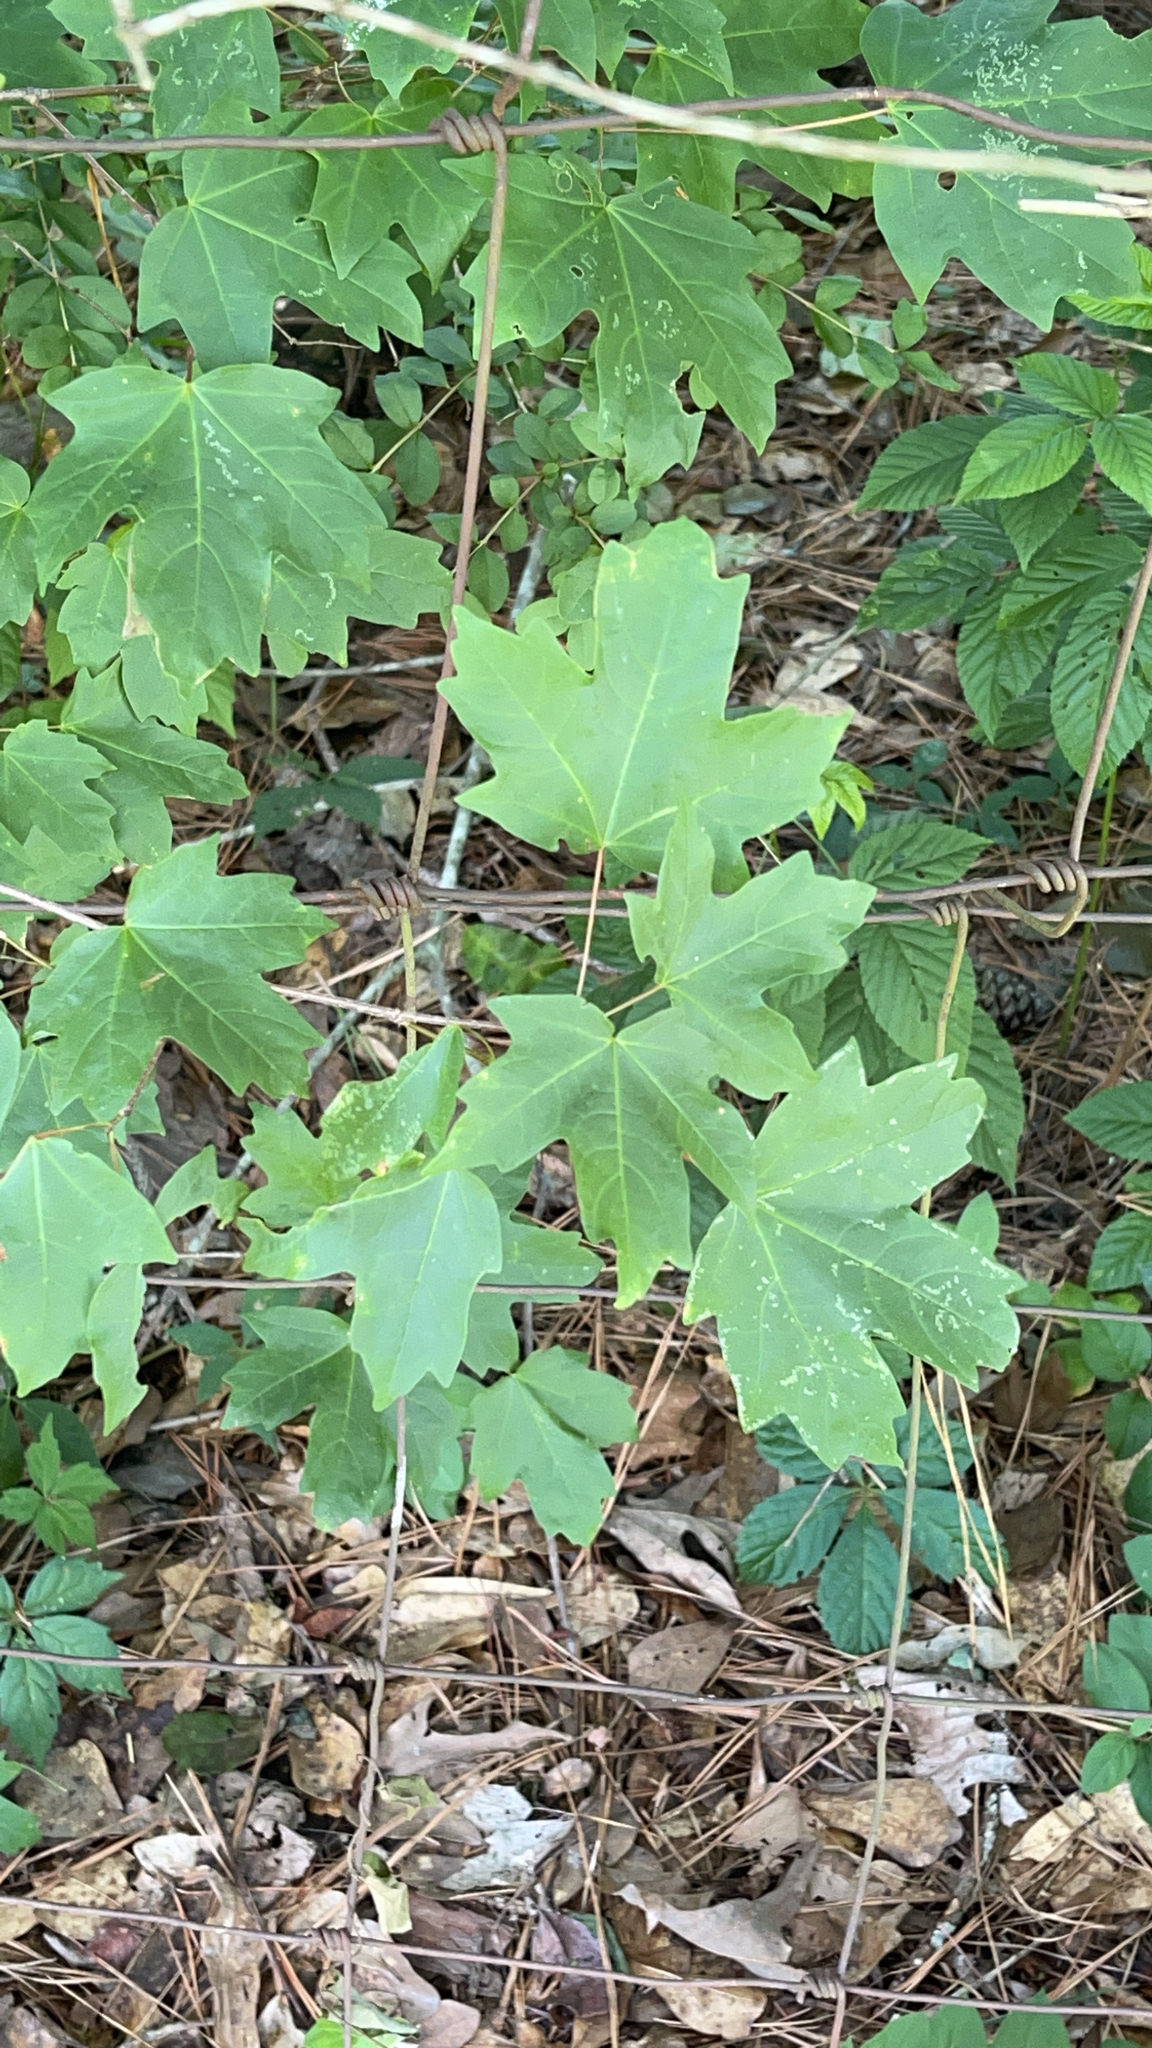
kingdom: Plantae
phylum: Tracheophyta
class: Magnoliopsida
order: Sapindales
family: Sapindaceae
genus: Acer
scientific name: Acer floridanum
